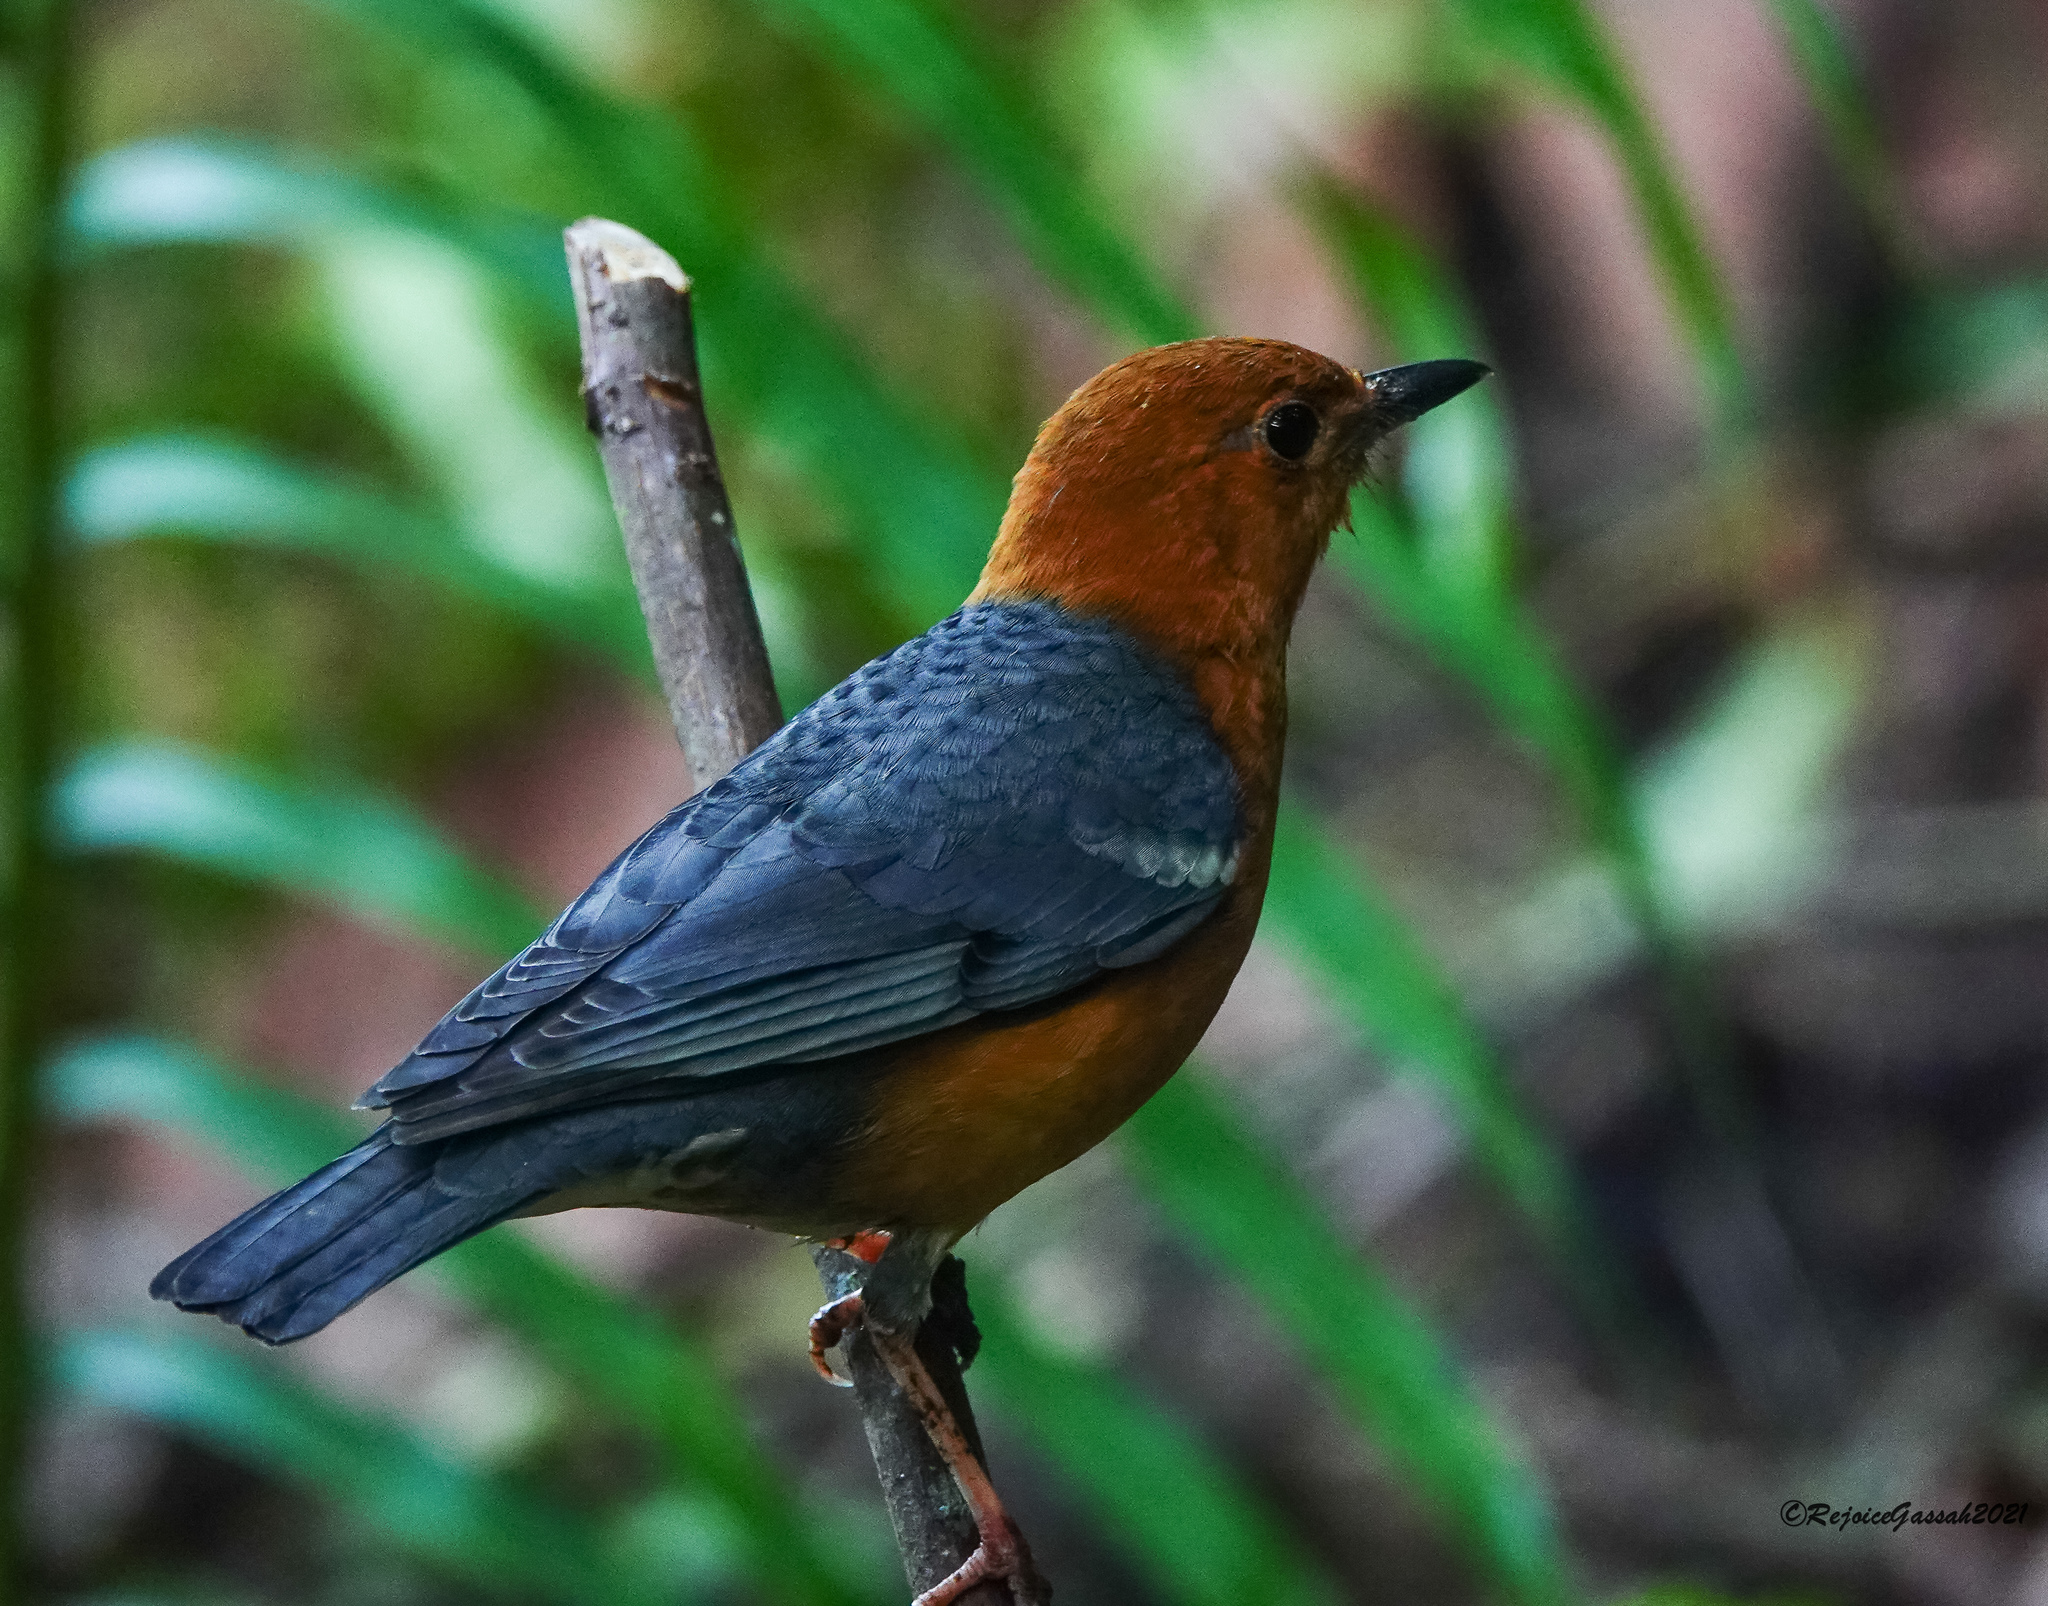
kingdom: Animalia
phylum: Chordata
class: Aves
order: Passeriformes
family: Turdidae
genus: Geokichla
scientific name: Geokichla citrina
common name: Orange-headed thrush
